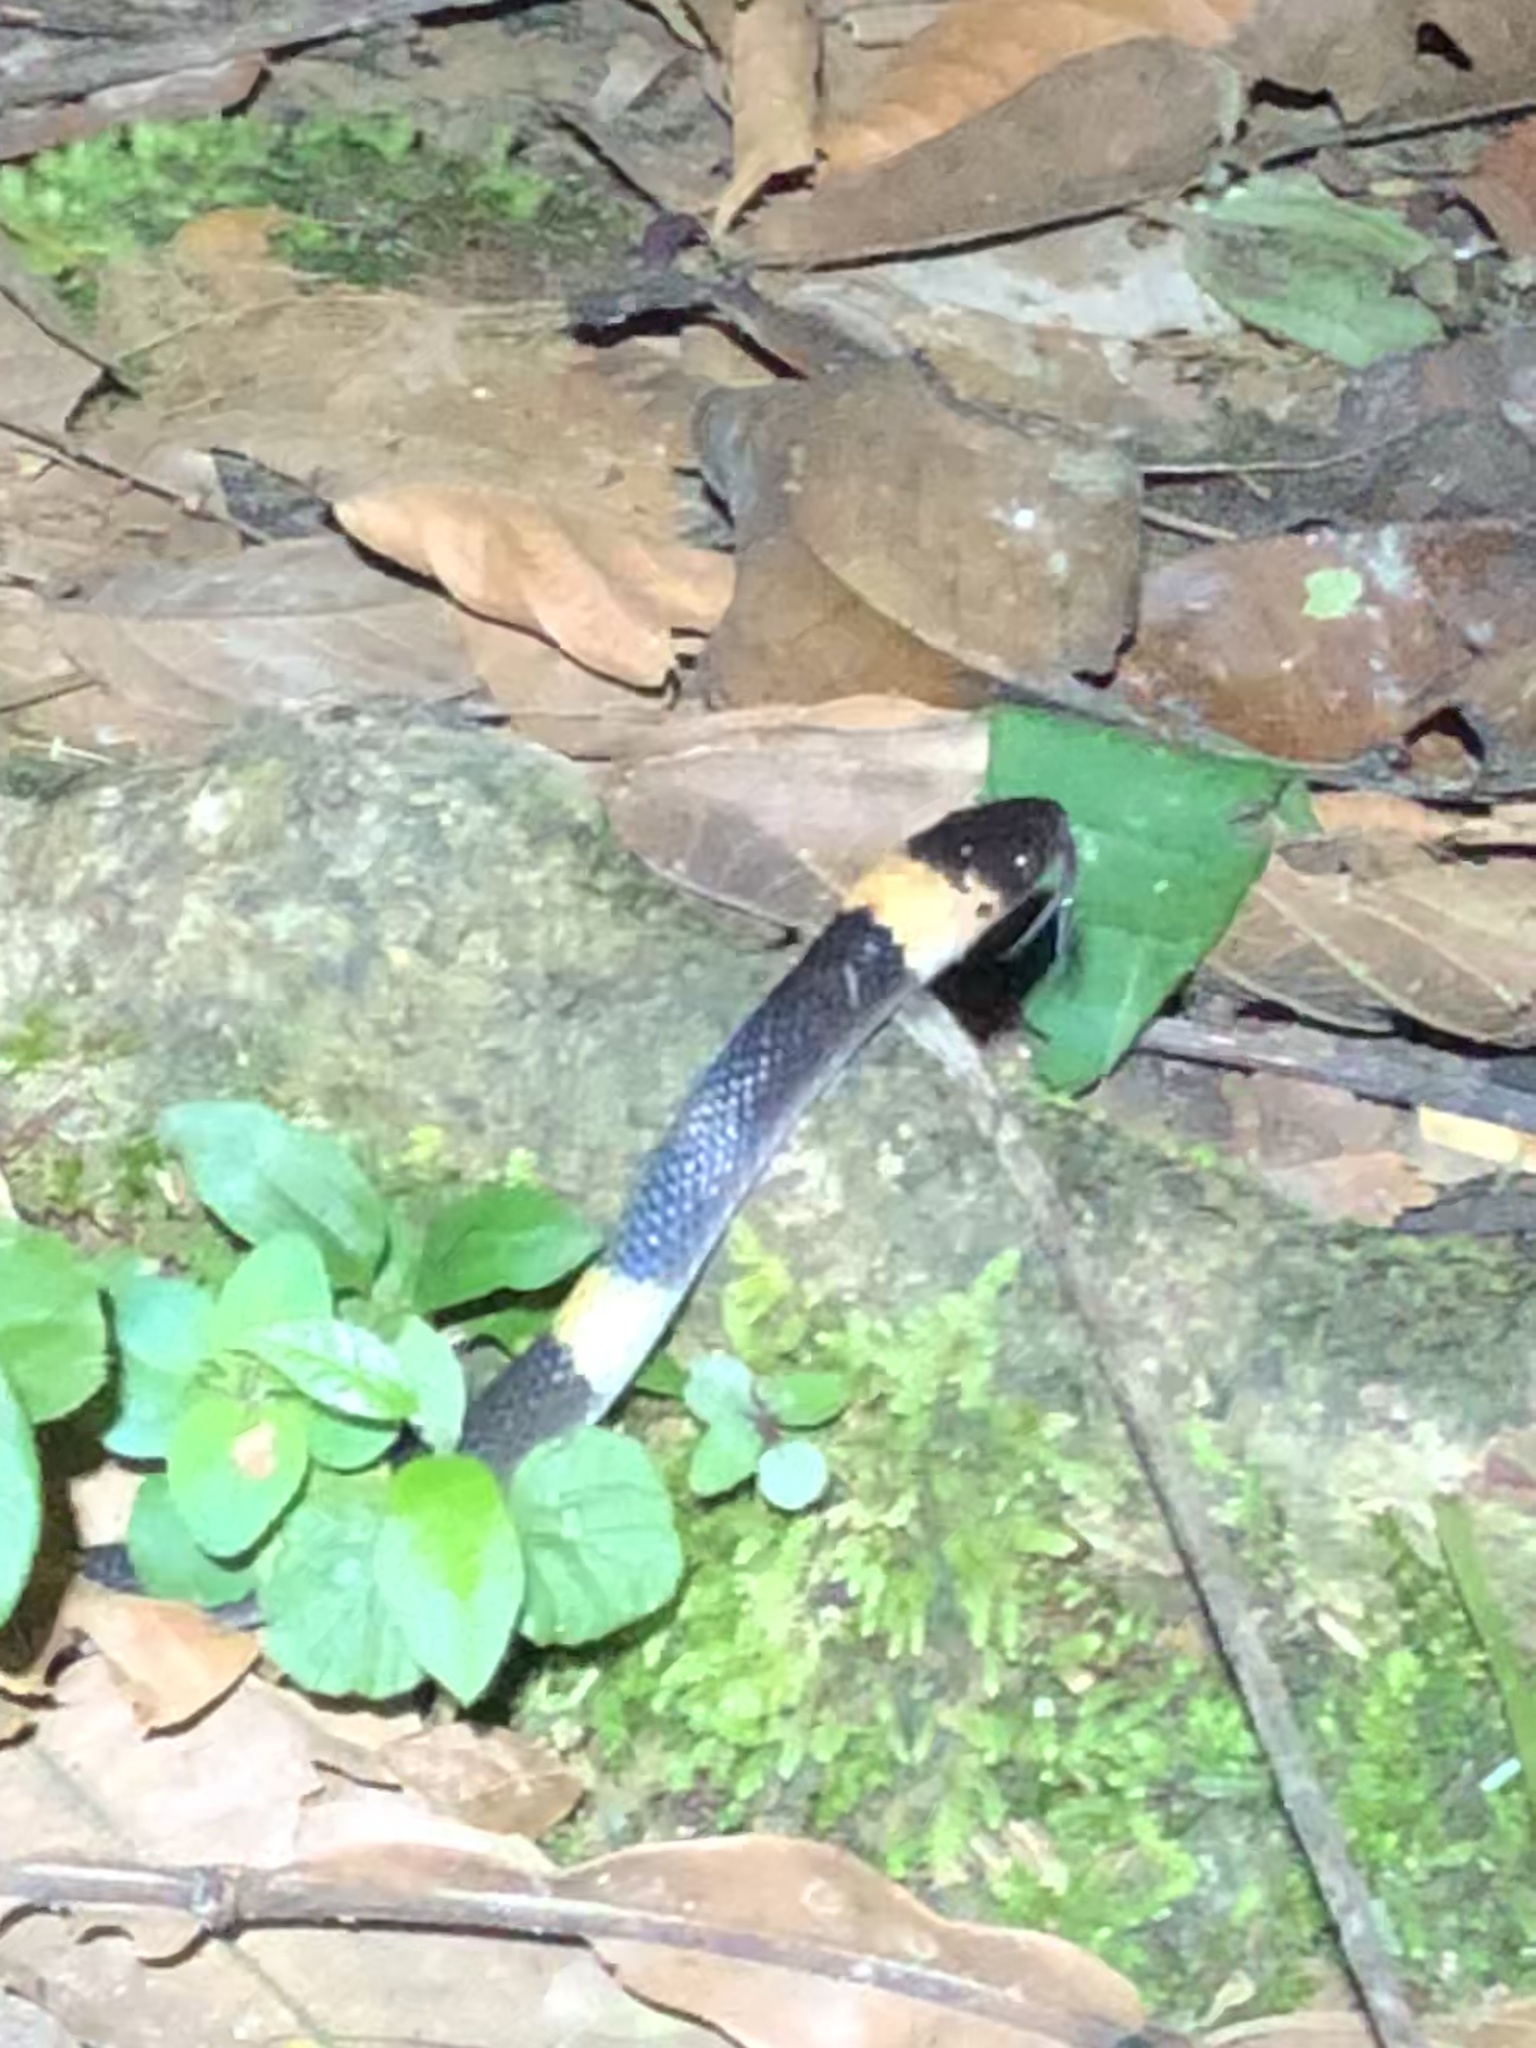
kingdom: Animalia
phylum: Chordata
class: Squamata
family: Colubridae
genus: Oxyrhopus
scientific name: Oxyrhopus petolarius
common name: Forest flame snake
